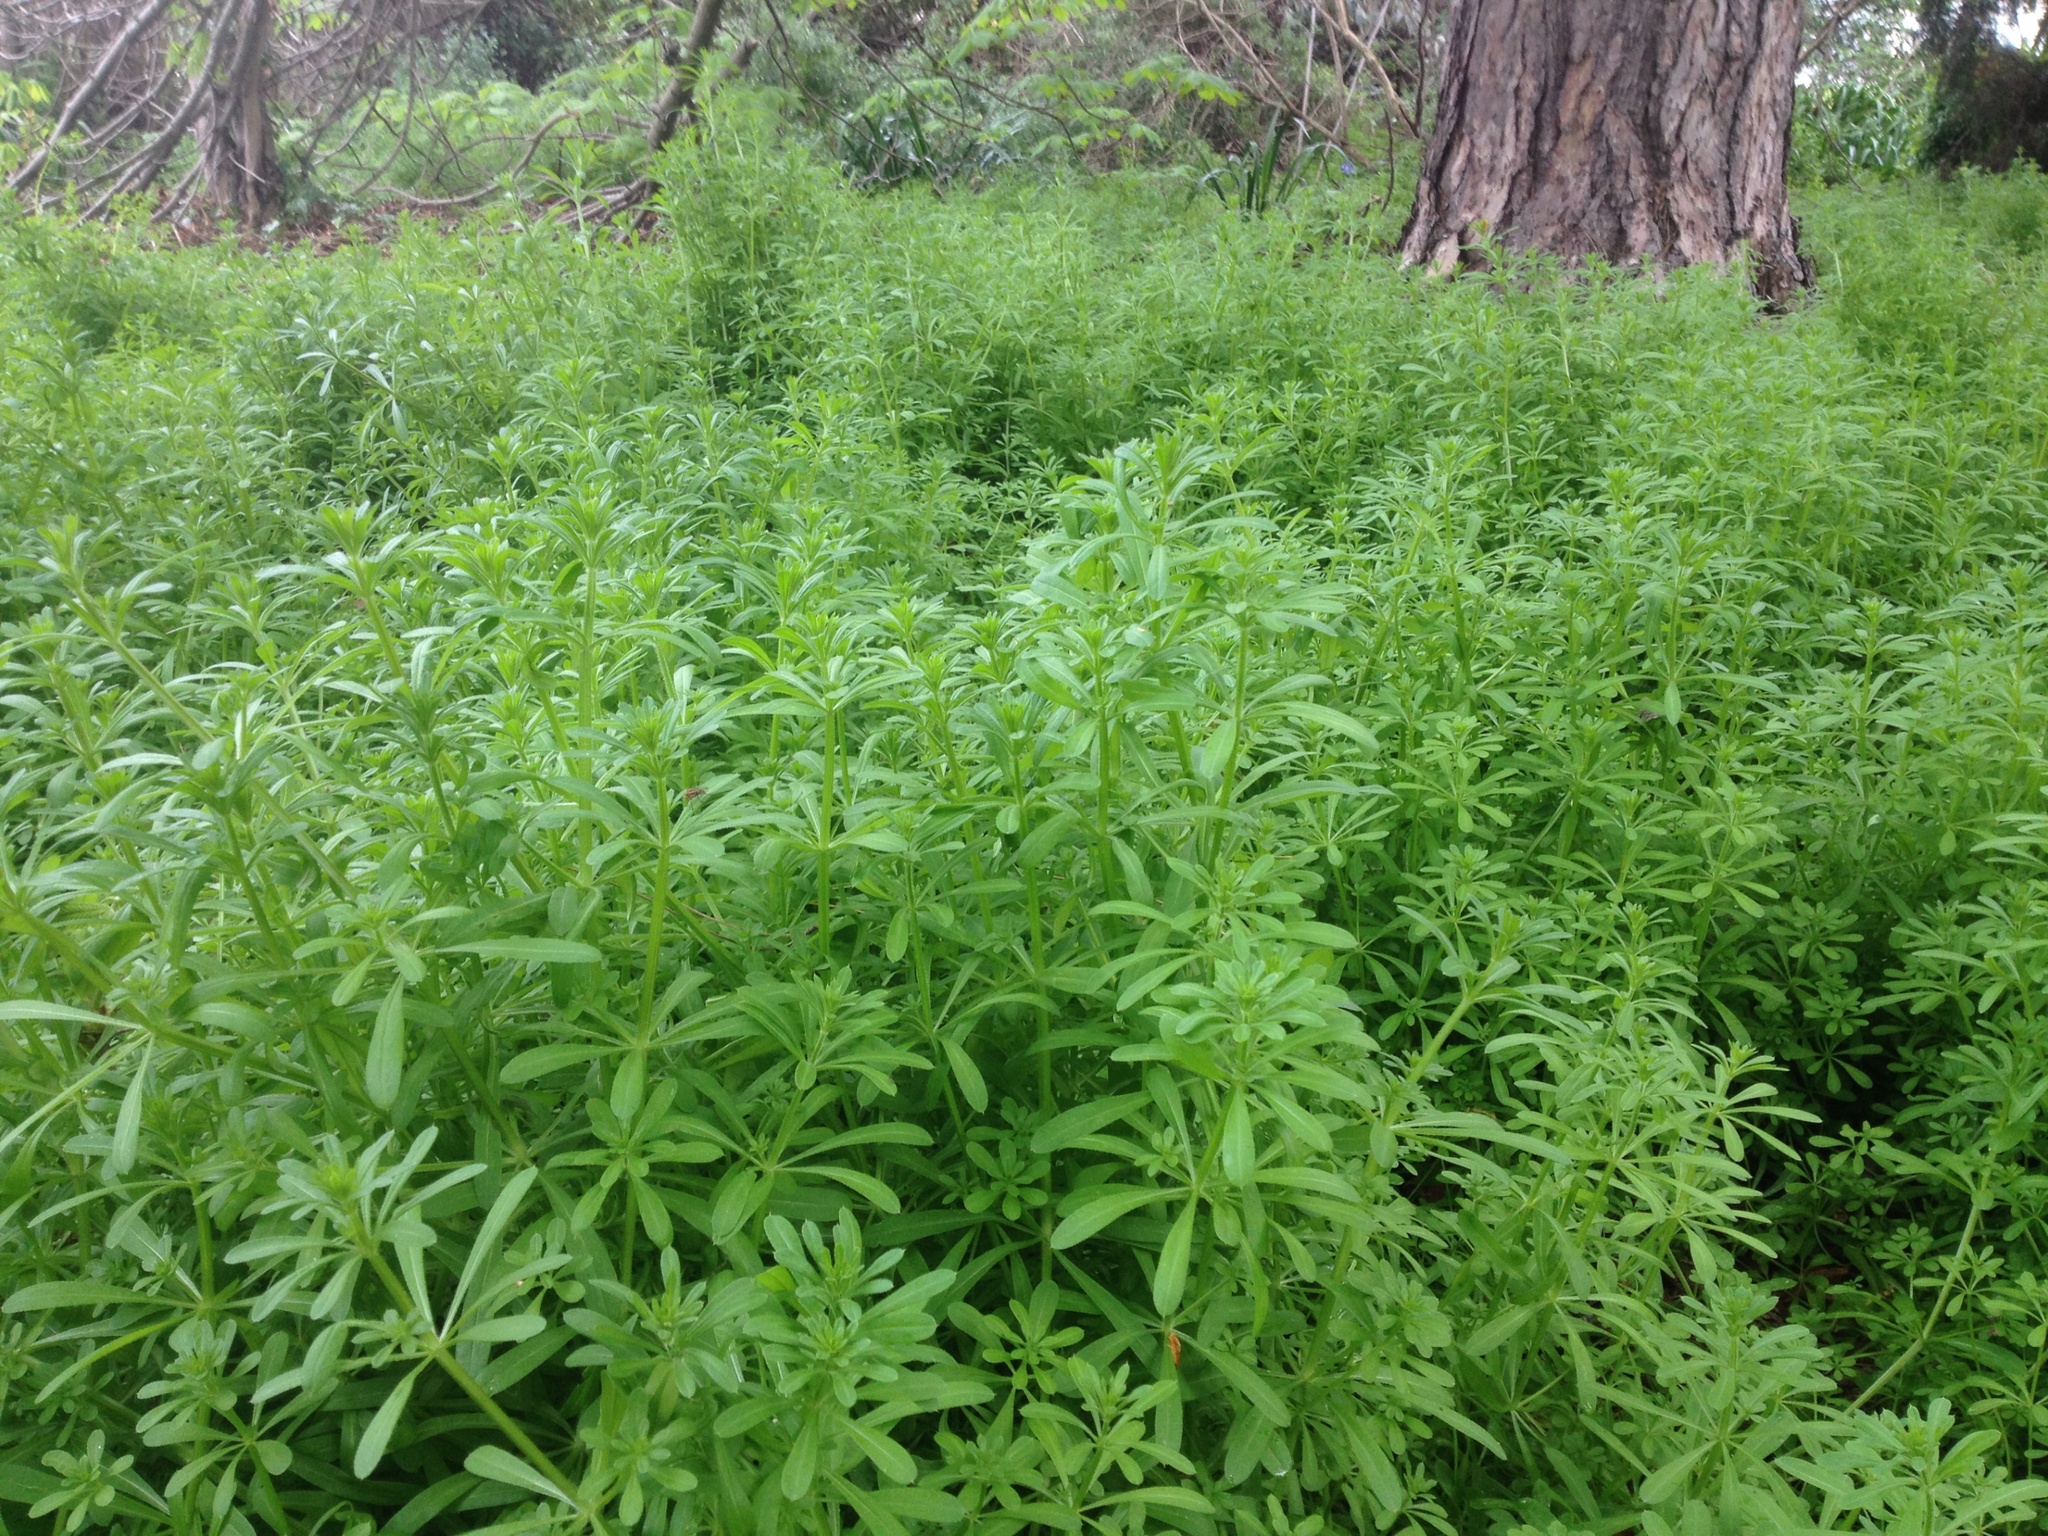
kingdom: Plantae
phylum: Tracheophyta
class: Magnoliopsida
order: Gentianales
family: Rubiaceae
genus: Galium
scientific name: Galium aparine
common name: Cleavers
